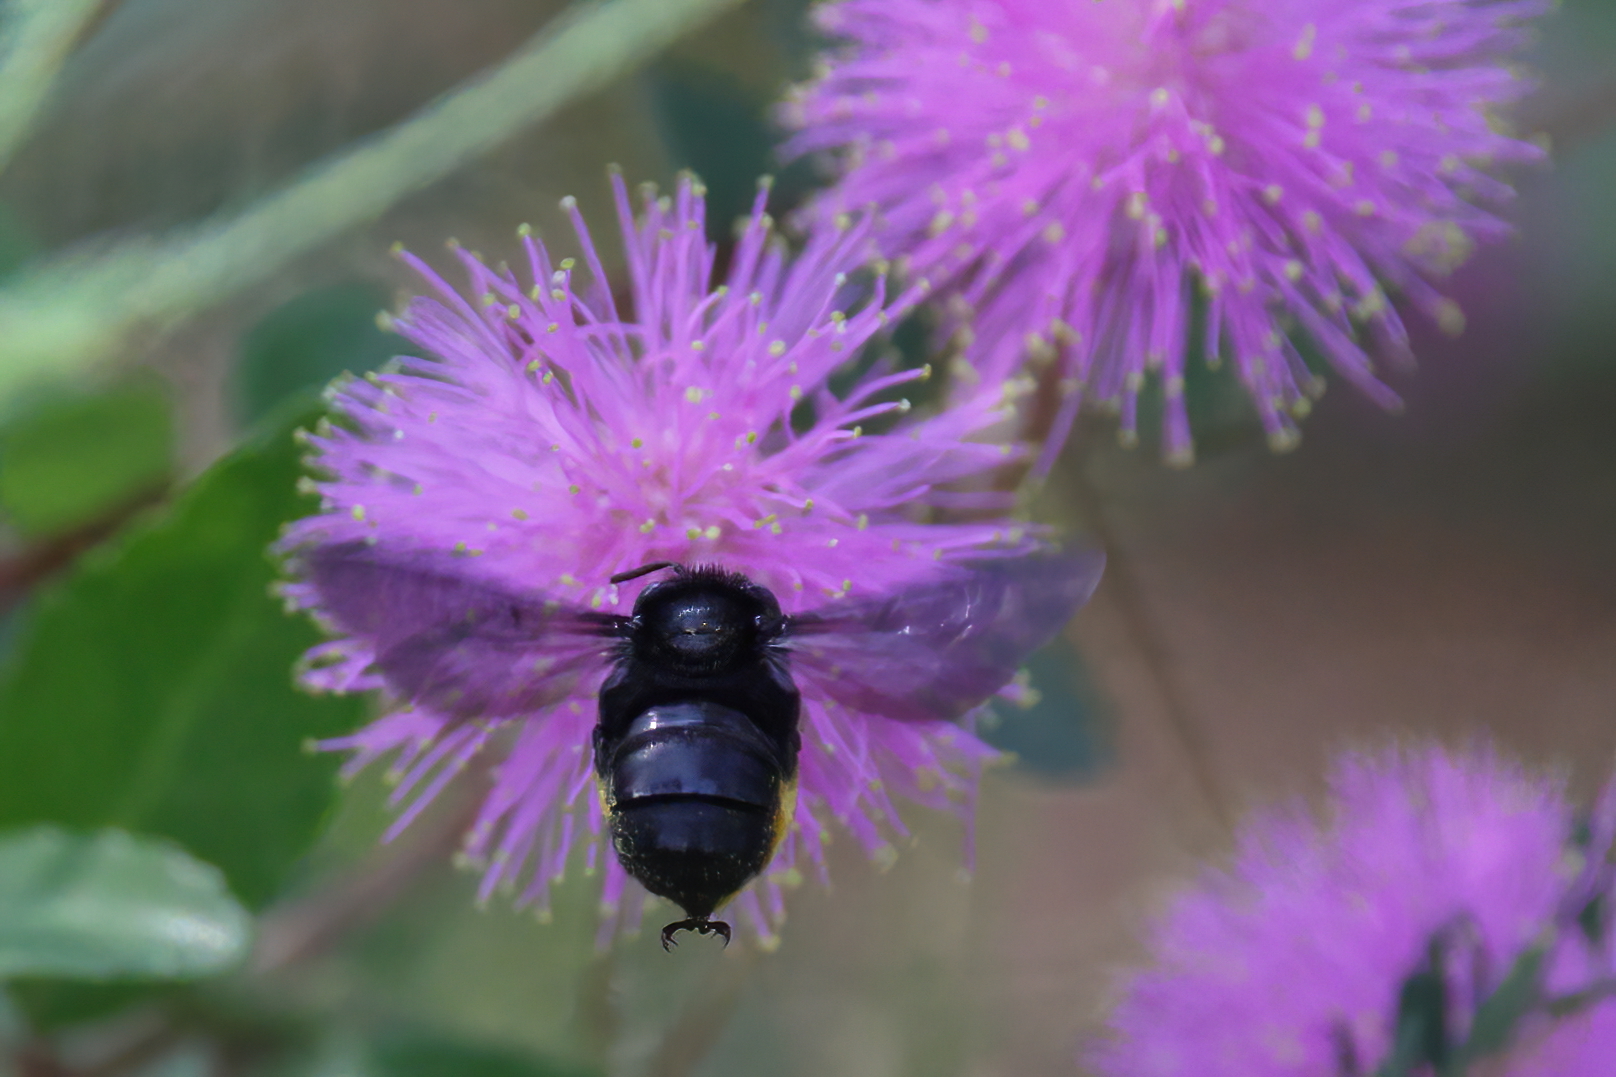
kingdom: Animalia
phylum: Arthropoda
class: Insecta
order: Hymenoptera
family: Apidae
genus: Melissodes
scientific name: Melissodes bimaculatus
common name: Two-spotted long-horned bee
